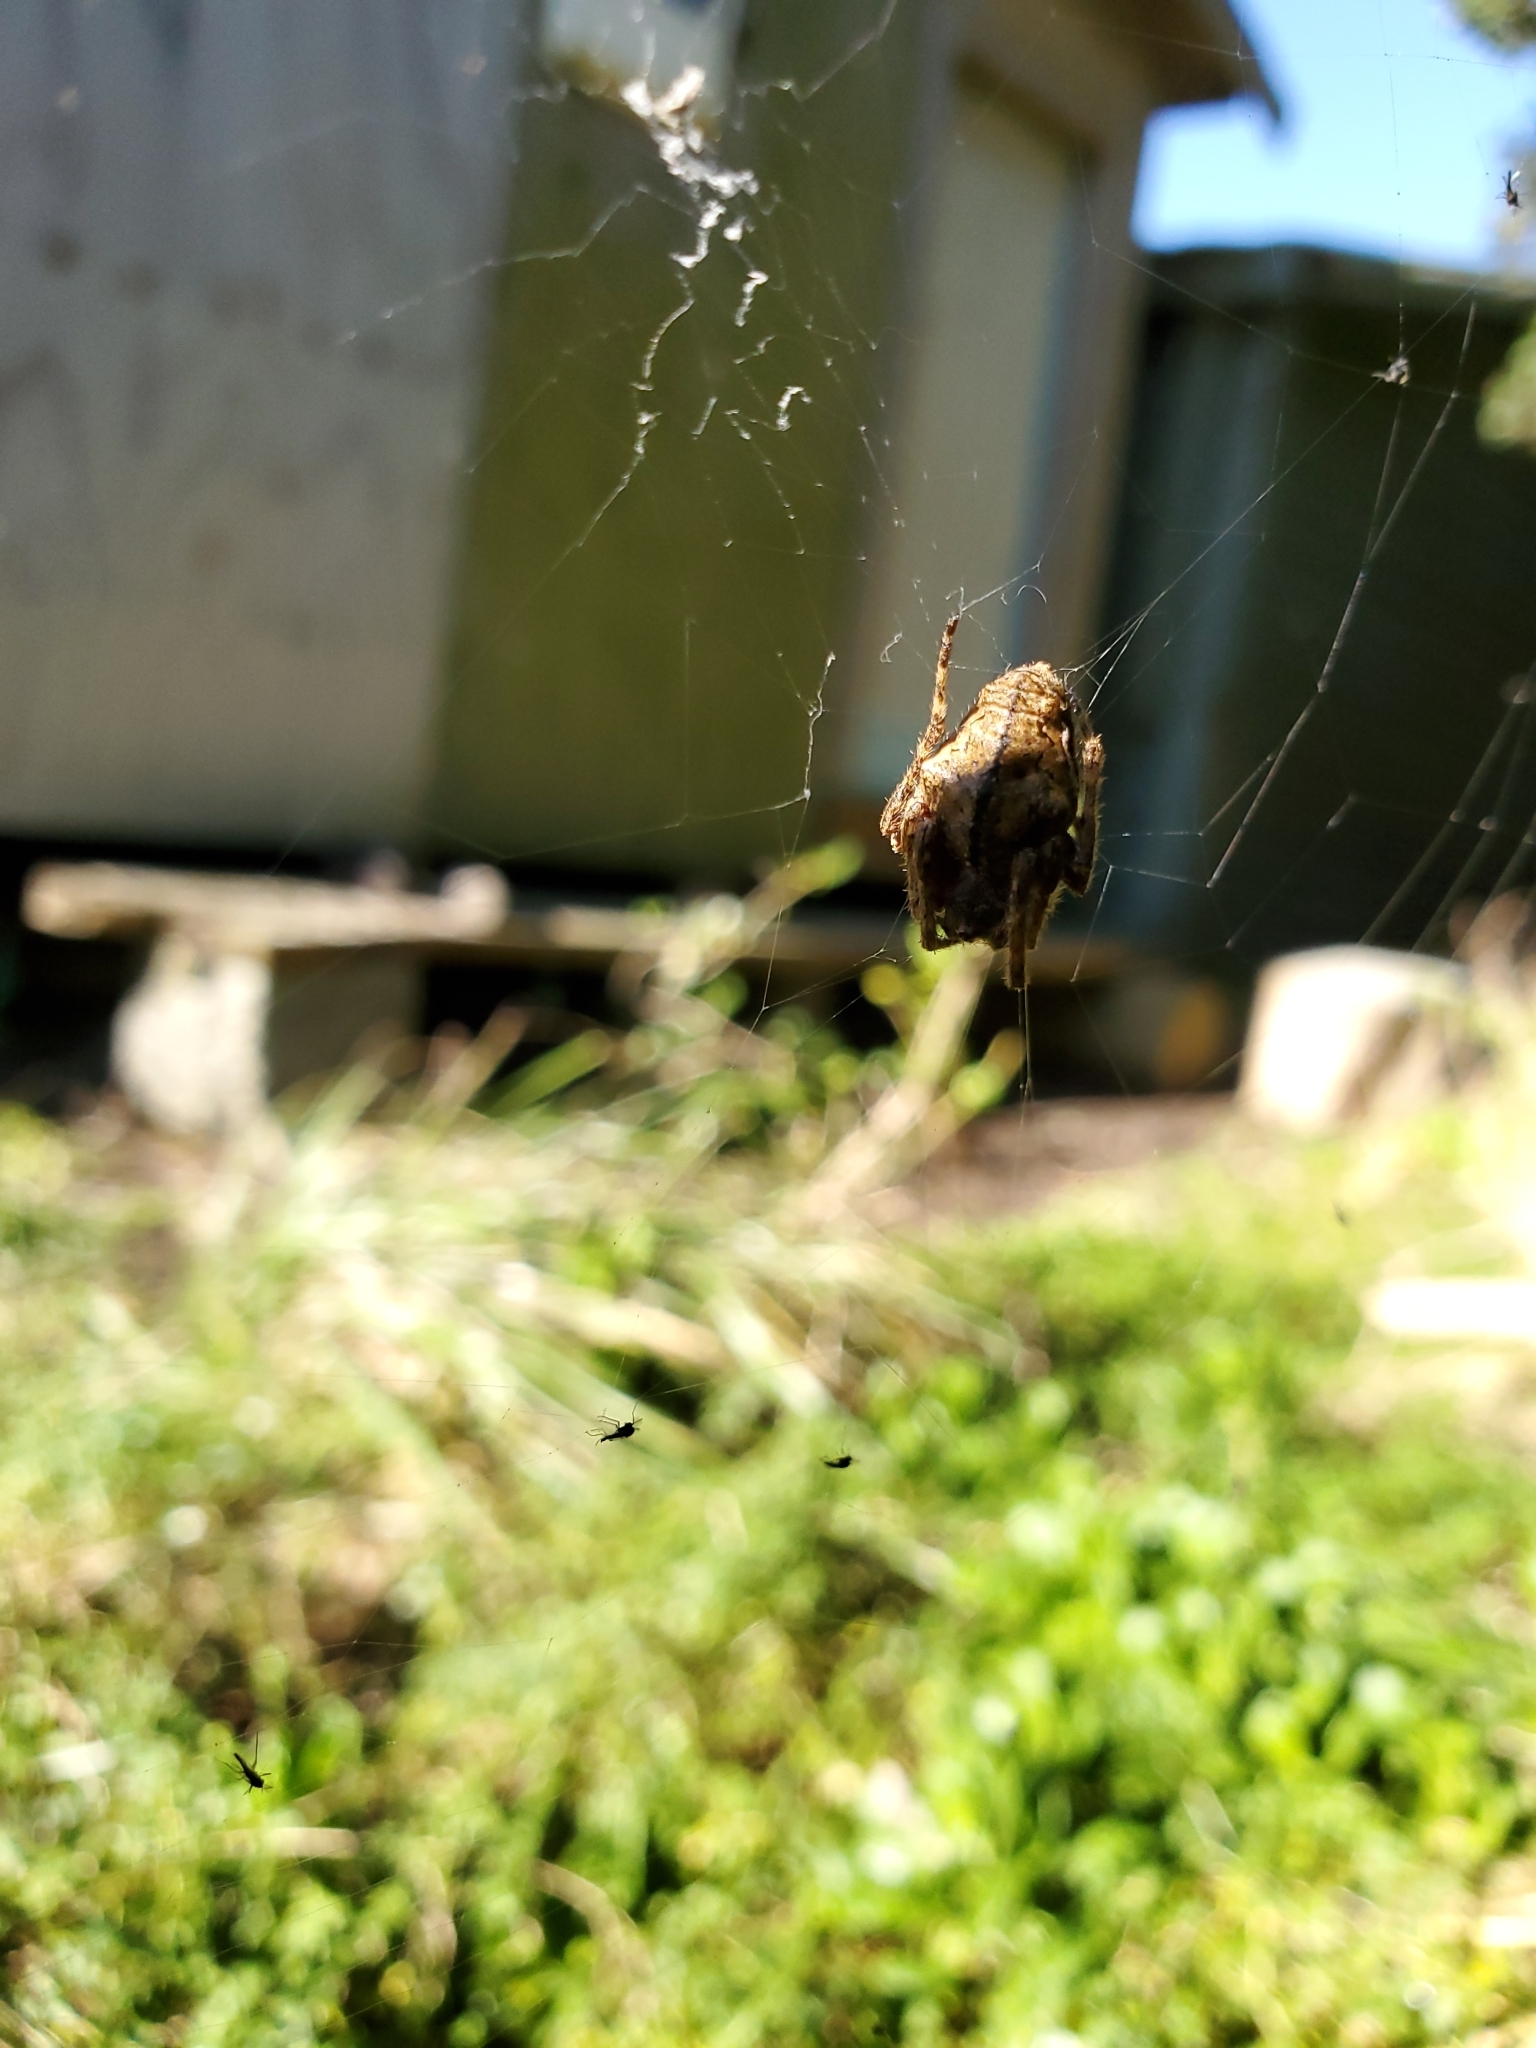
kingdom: Animalia
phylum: Arthropoda
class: Arachnida
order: Araneae
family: Araneidae
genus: Eriophora
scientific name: Eriophora pustulosa
